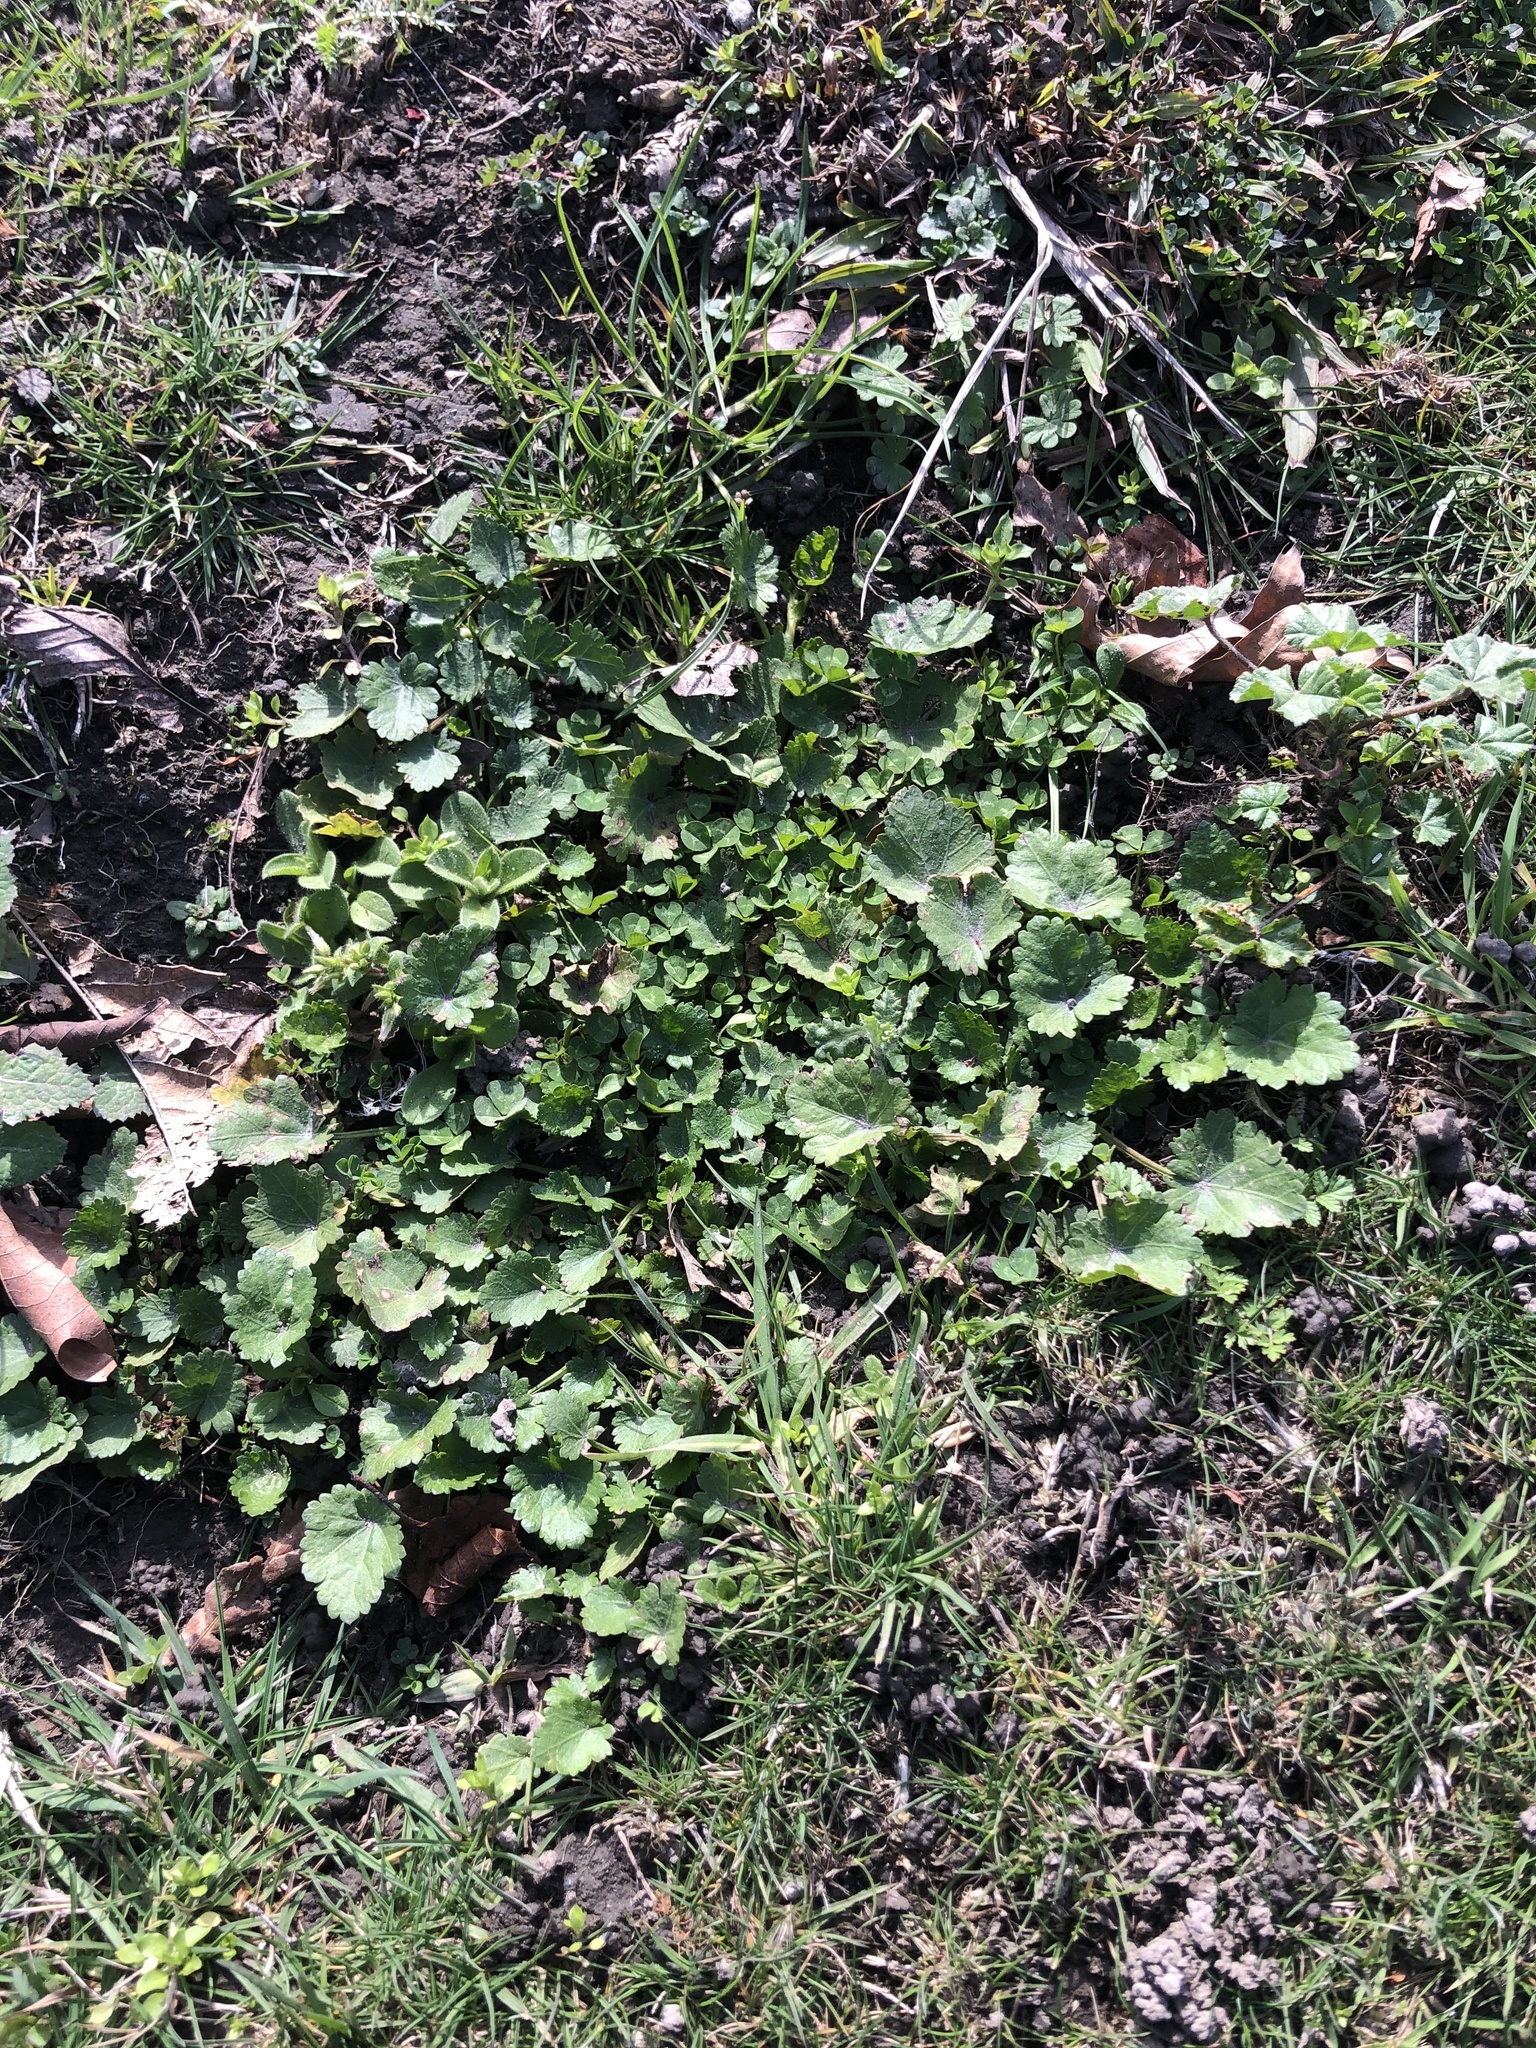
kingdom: Plantae
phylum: Tracheophyta
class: Magnoliopsida
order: Malvales
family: Malvaceae
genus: Modiola
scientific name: Modiola caroliniana
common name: Carolina bristlemallow
